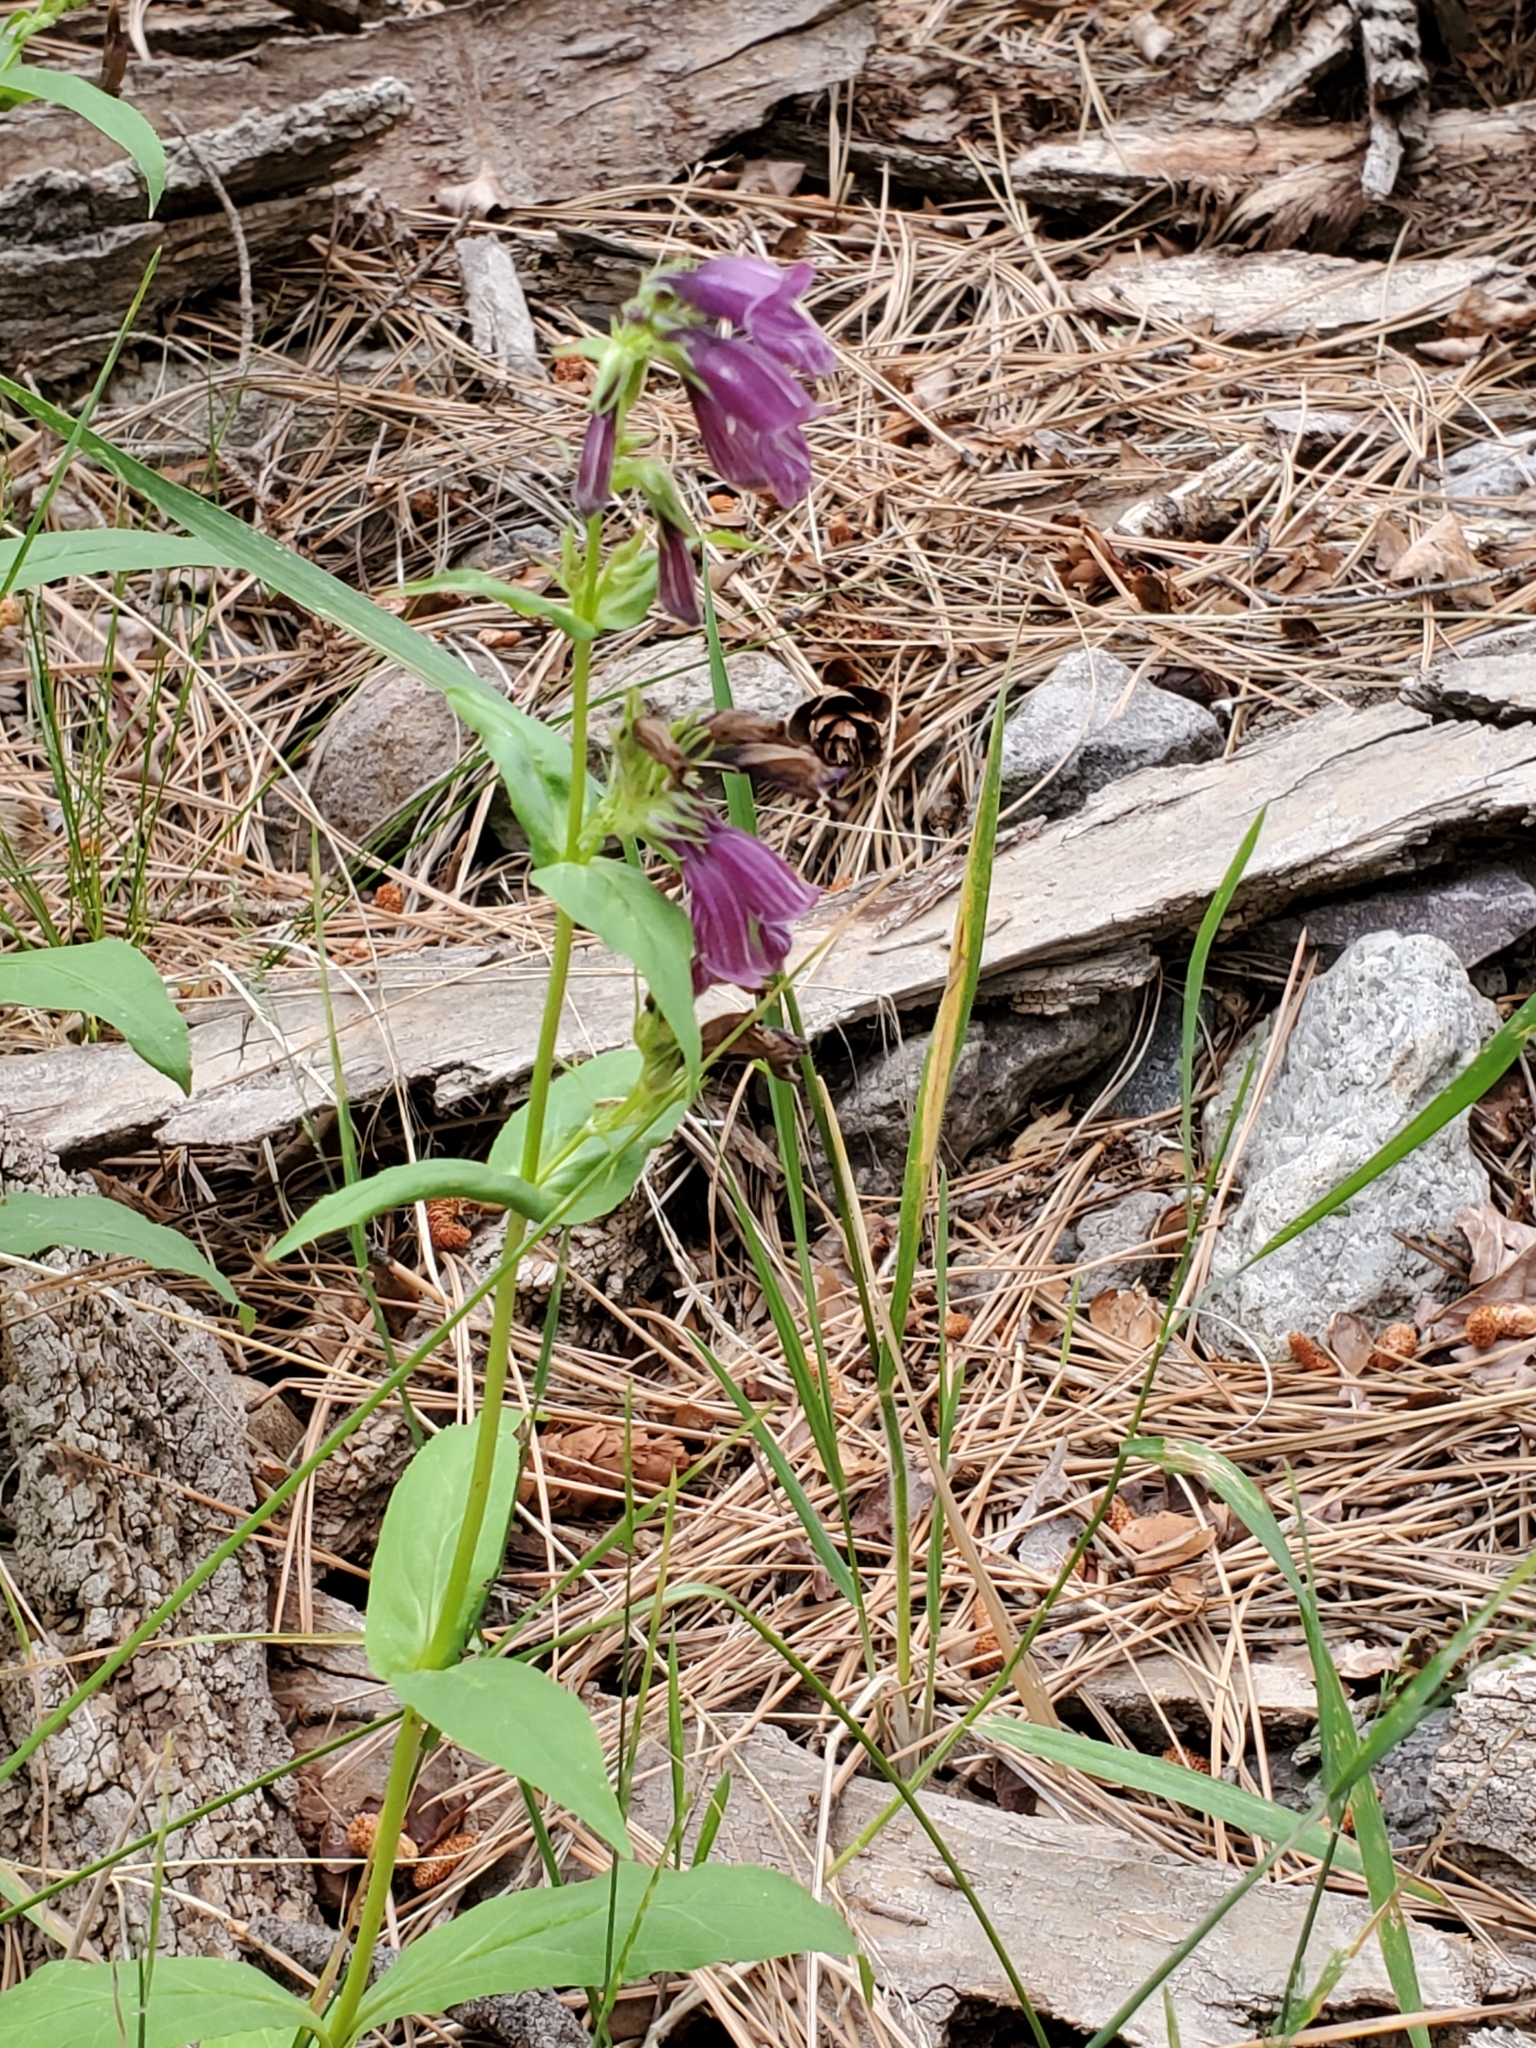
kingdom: Plantae
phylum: Tracheophyta
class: Magnoliopsida
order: Lamiales
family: Plantaginaceae
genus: Penstemon
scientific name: Penstemon whippleanus
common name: Whipple's penstemon
